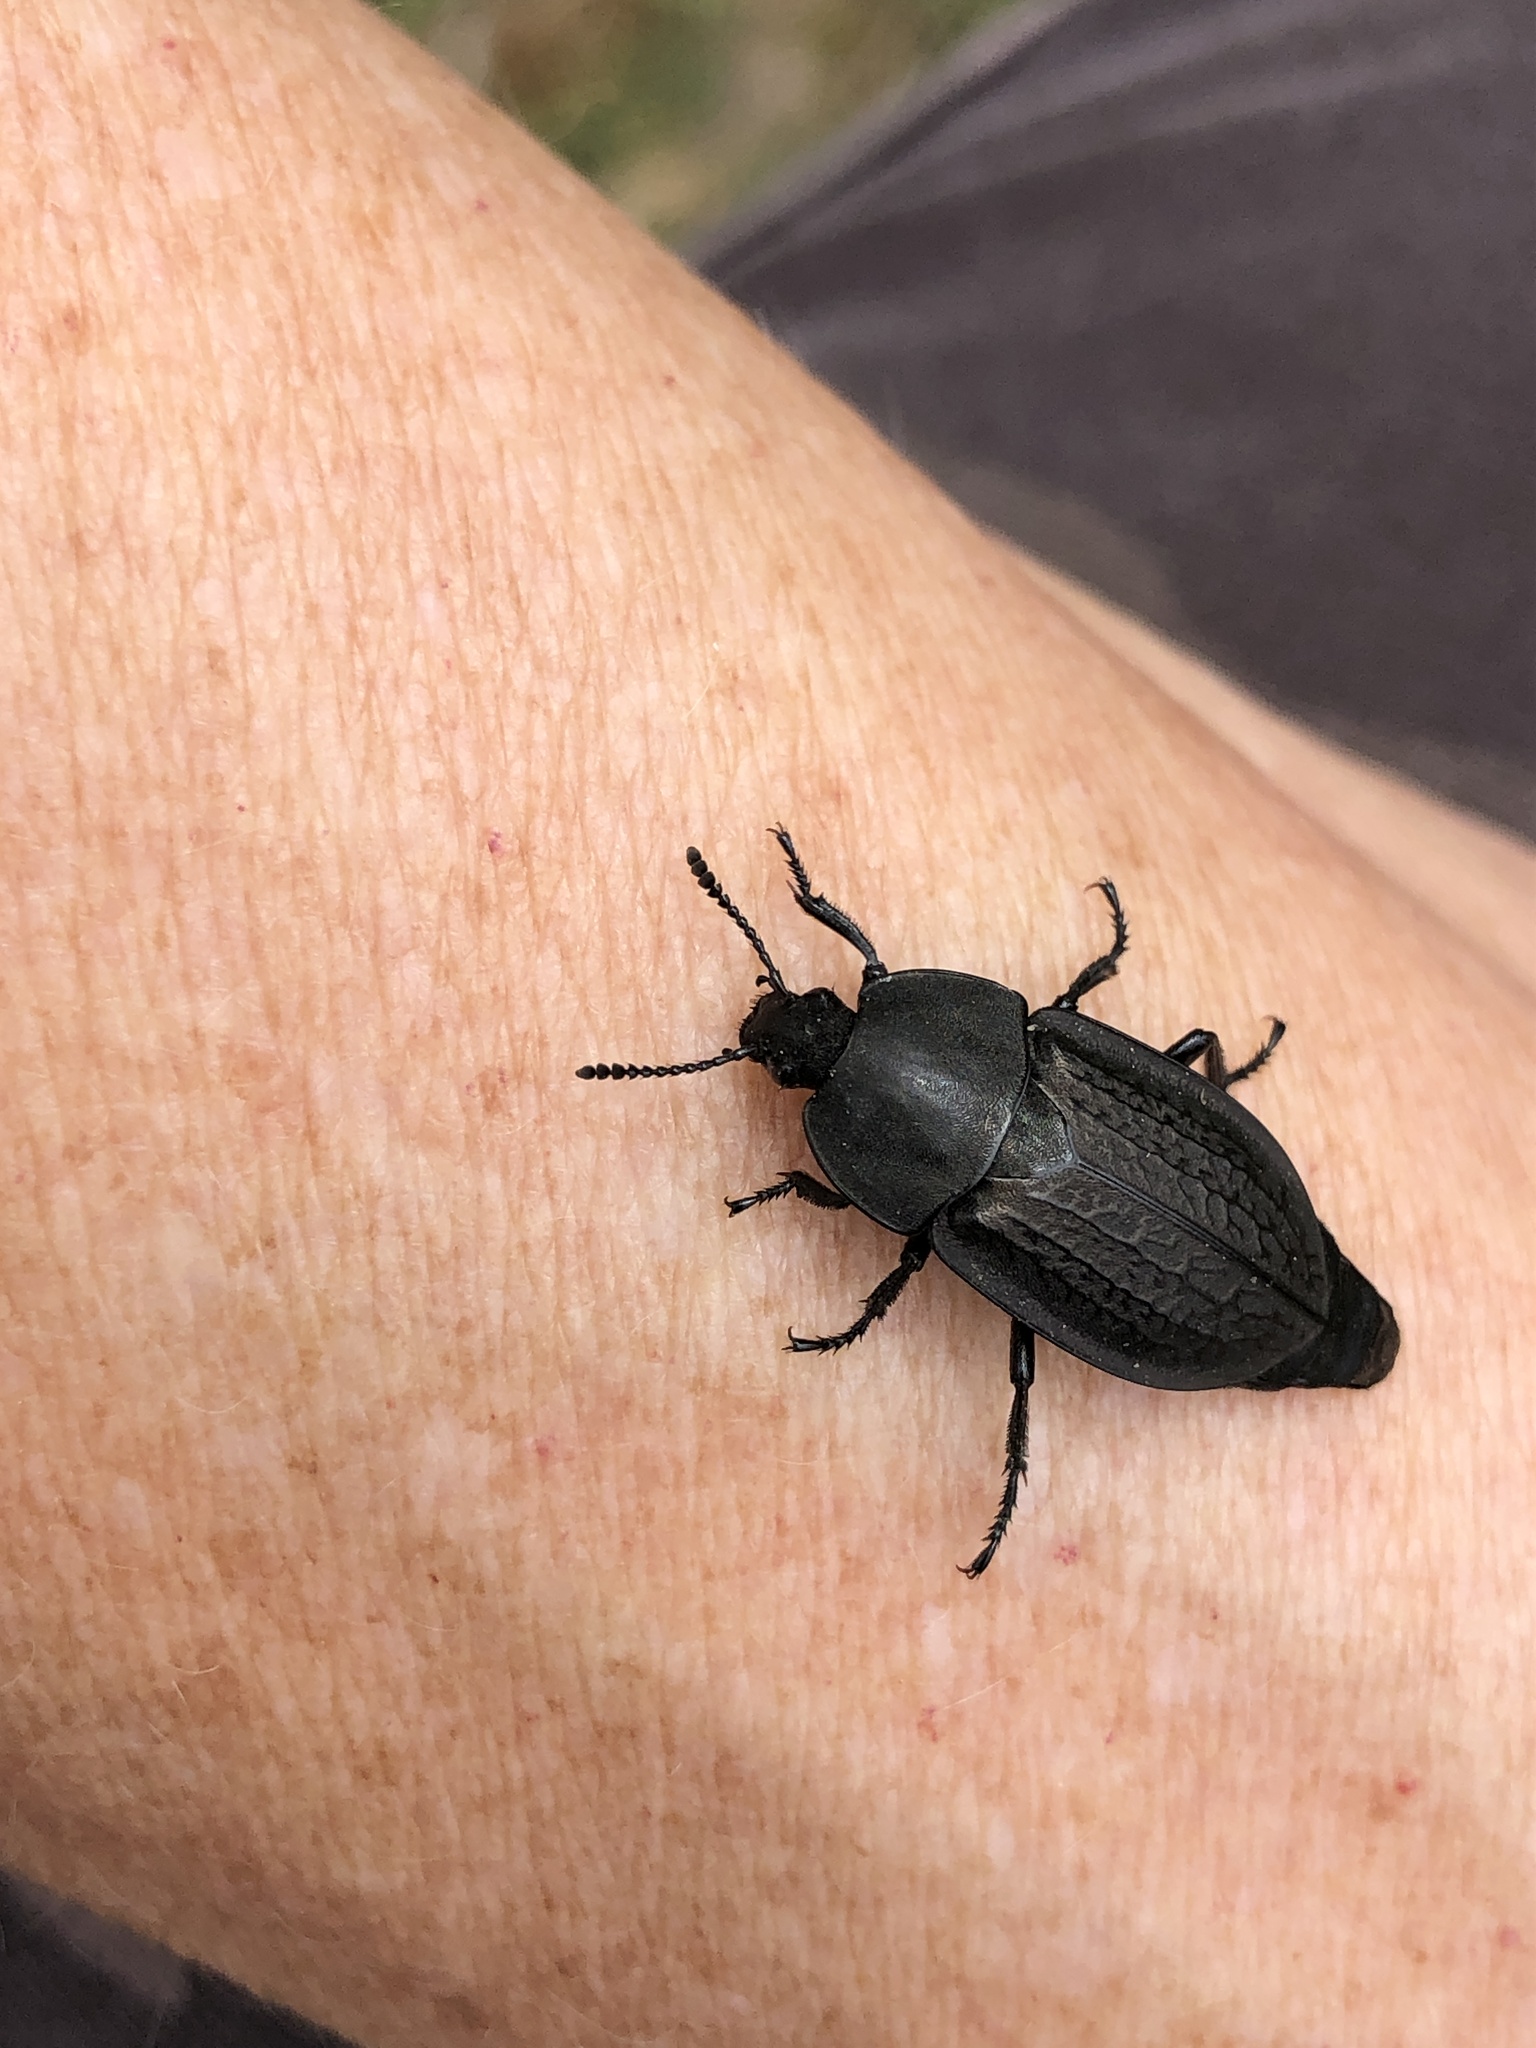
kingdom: Animalia
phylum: Arthropoda
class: Insecta
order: Coleoptera
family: Staphylinidae
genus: Heterosilpha
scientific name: Heterosilpha ramosa
